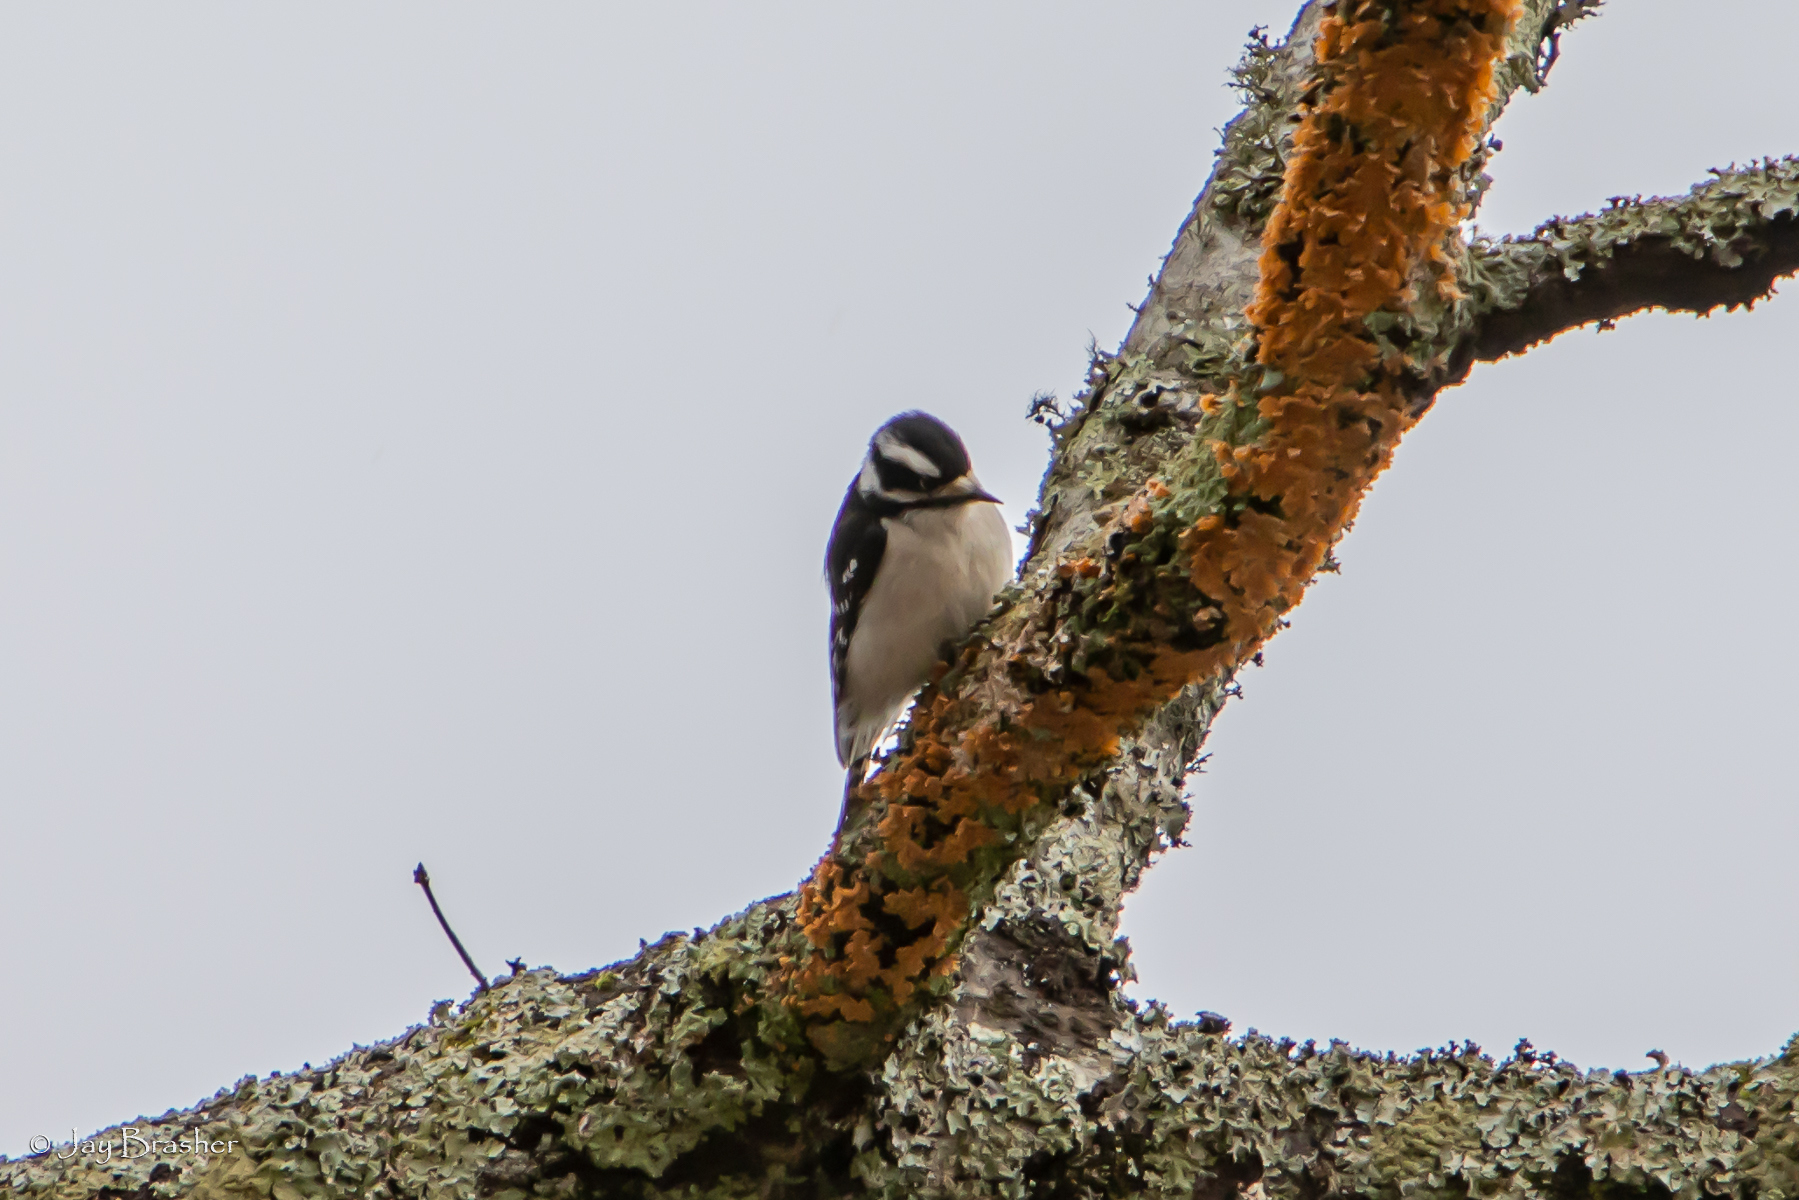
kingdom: Animalia
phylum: Chordata
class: Aves
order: Piciformes
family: Picidae
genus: Dryobates
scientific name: Dryobates pubescens
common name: Downy woodpecker
